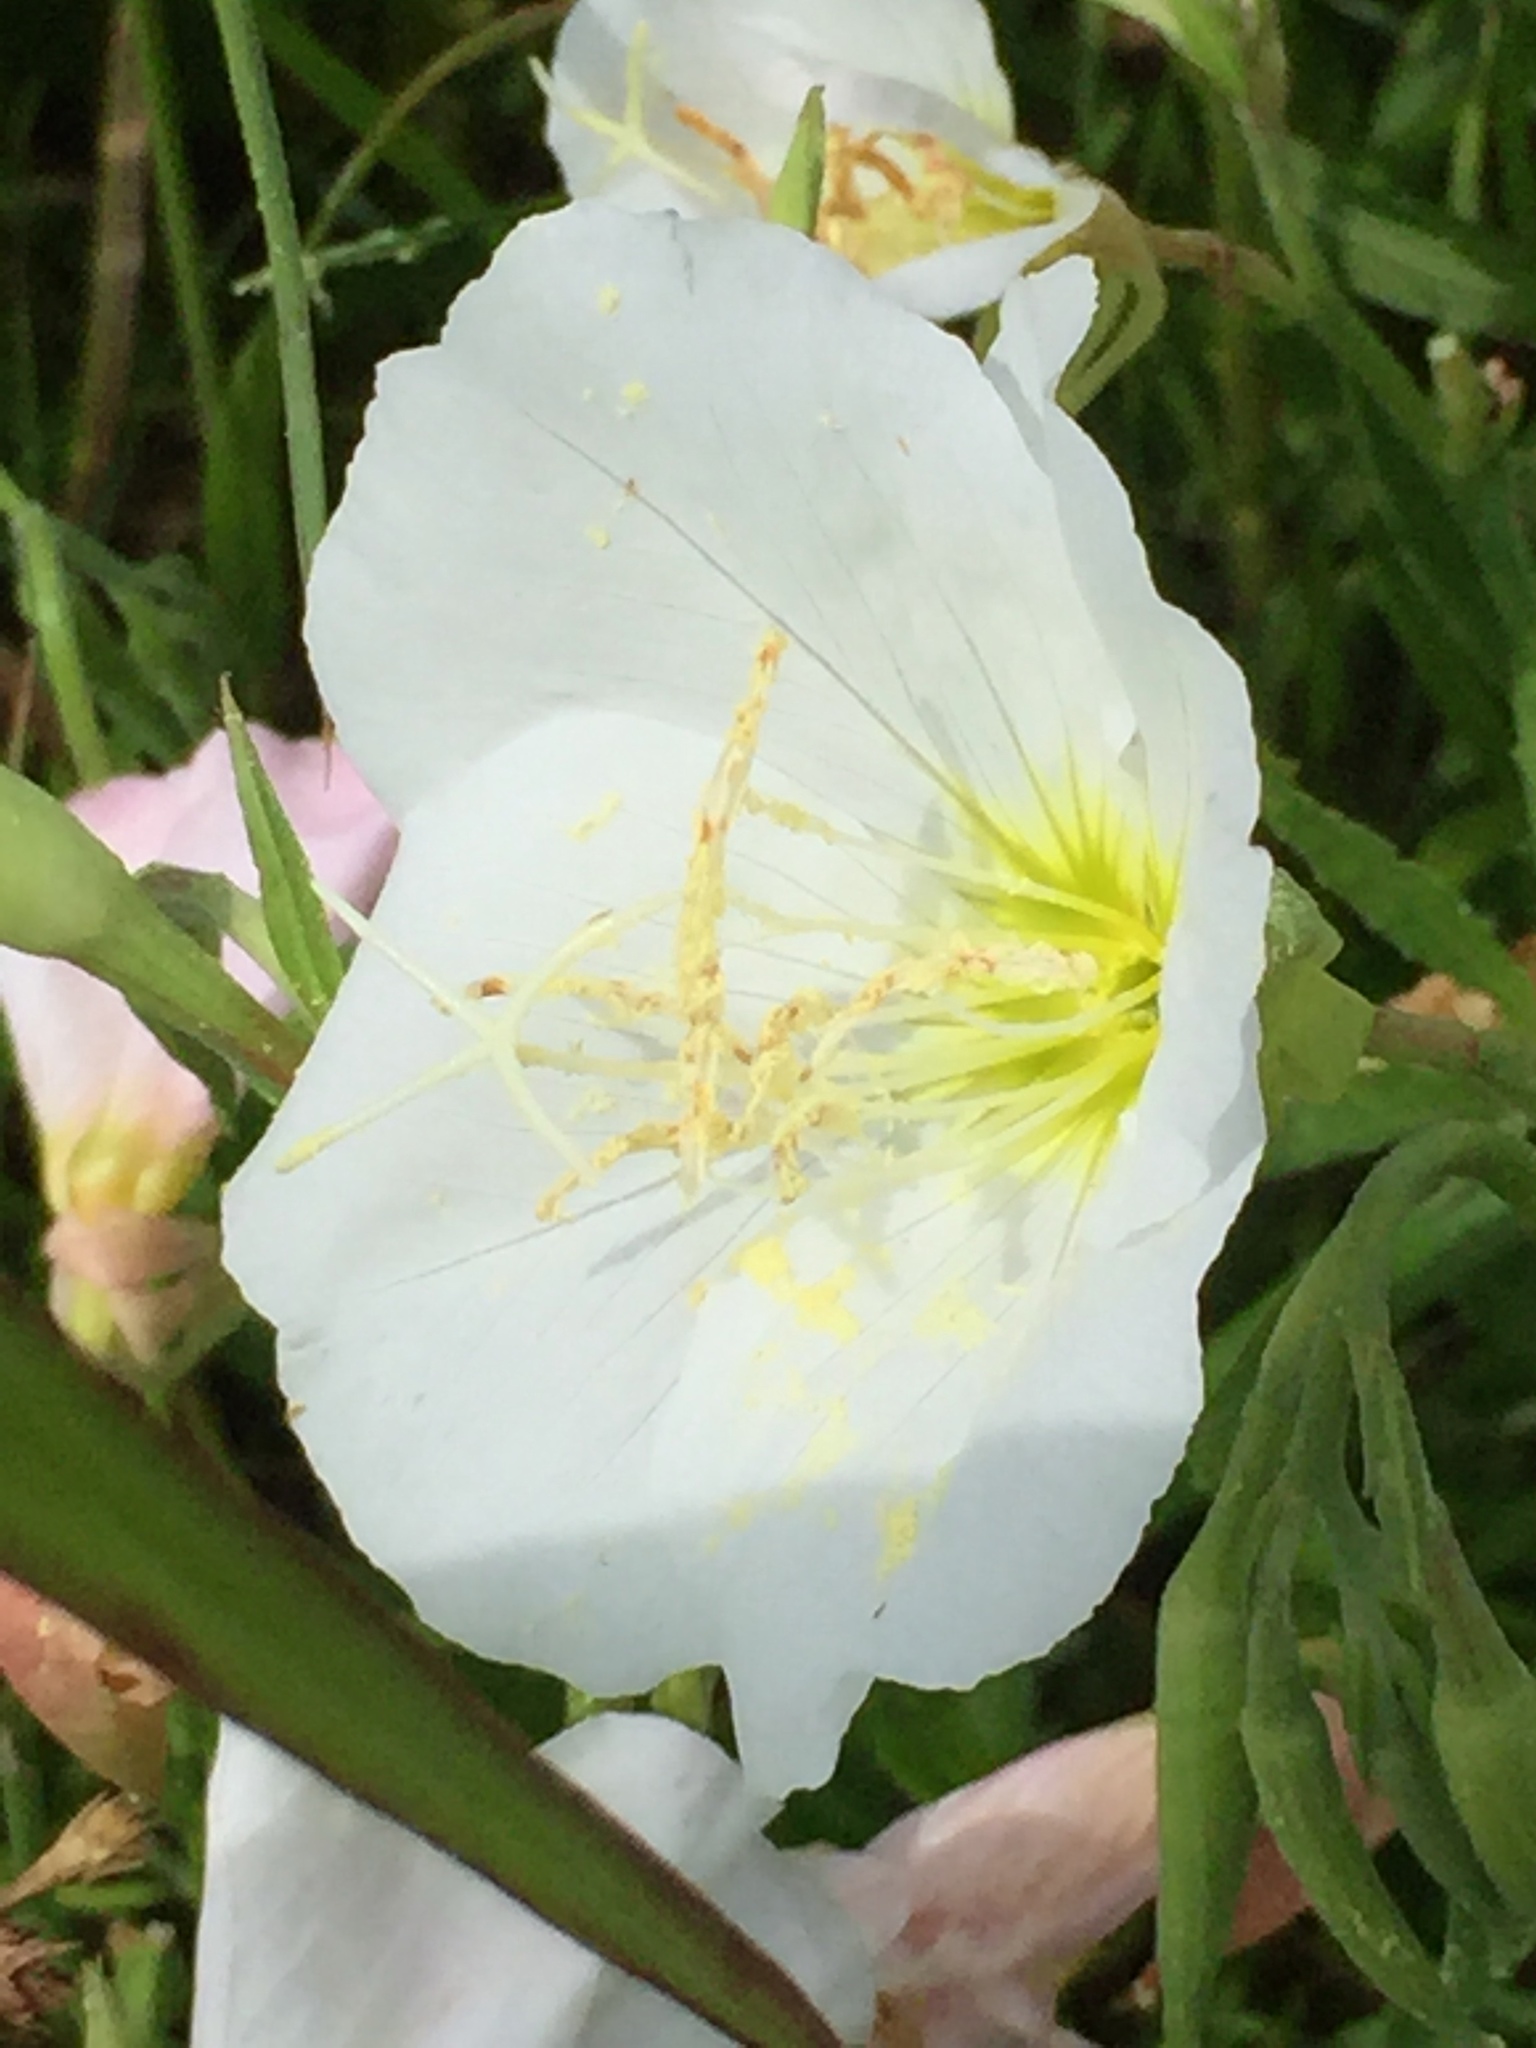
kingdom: Plantae
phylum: Tracheophyta
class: Magnoliopsida
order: Myrtales
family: Onagraceae
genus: Oenothera
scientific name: Oenothera speciosa
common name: White evening-primrose
